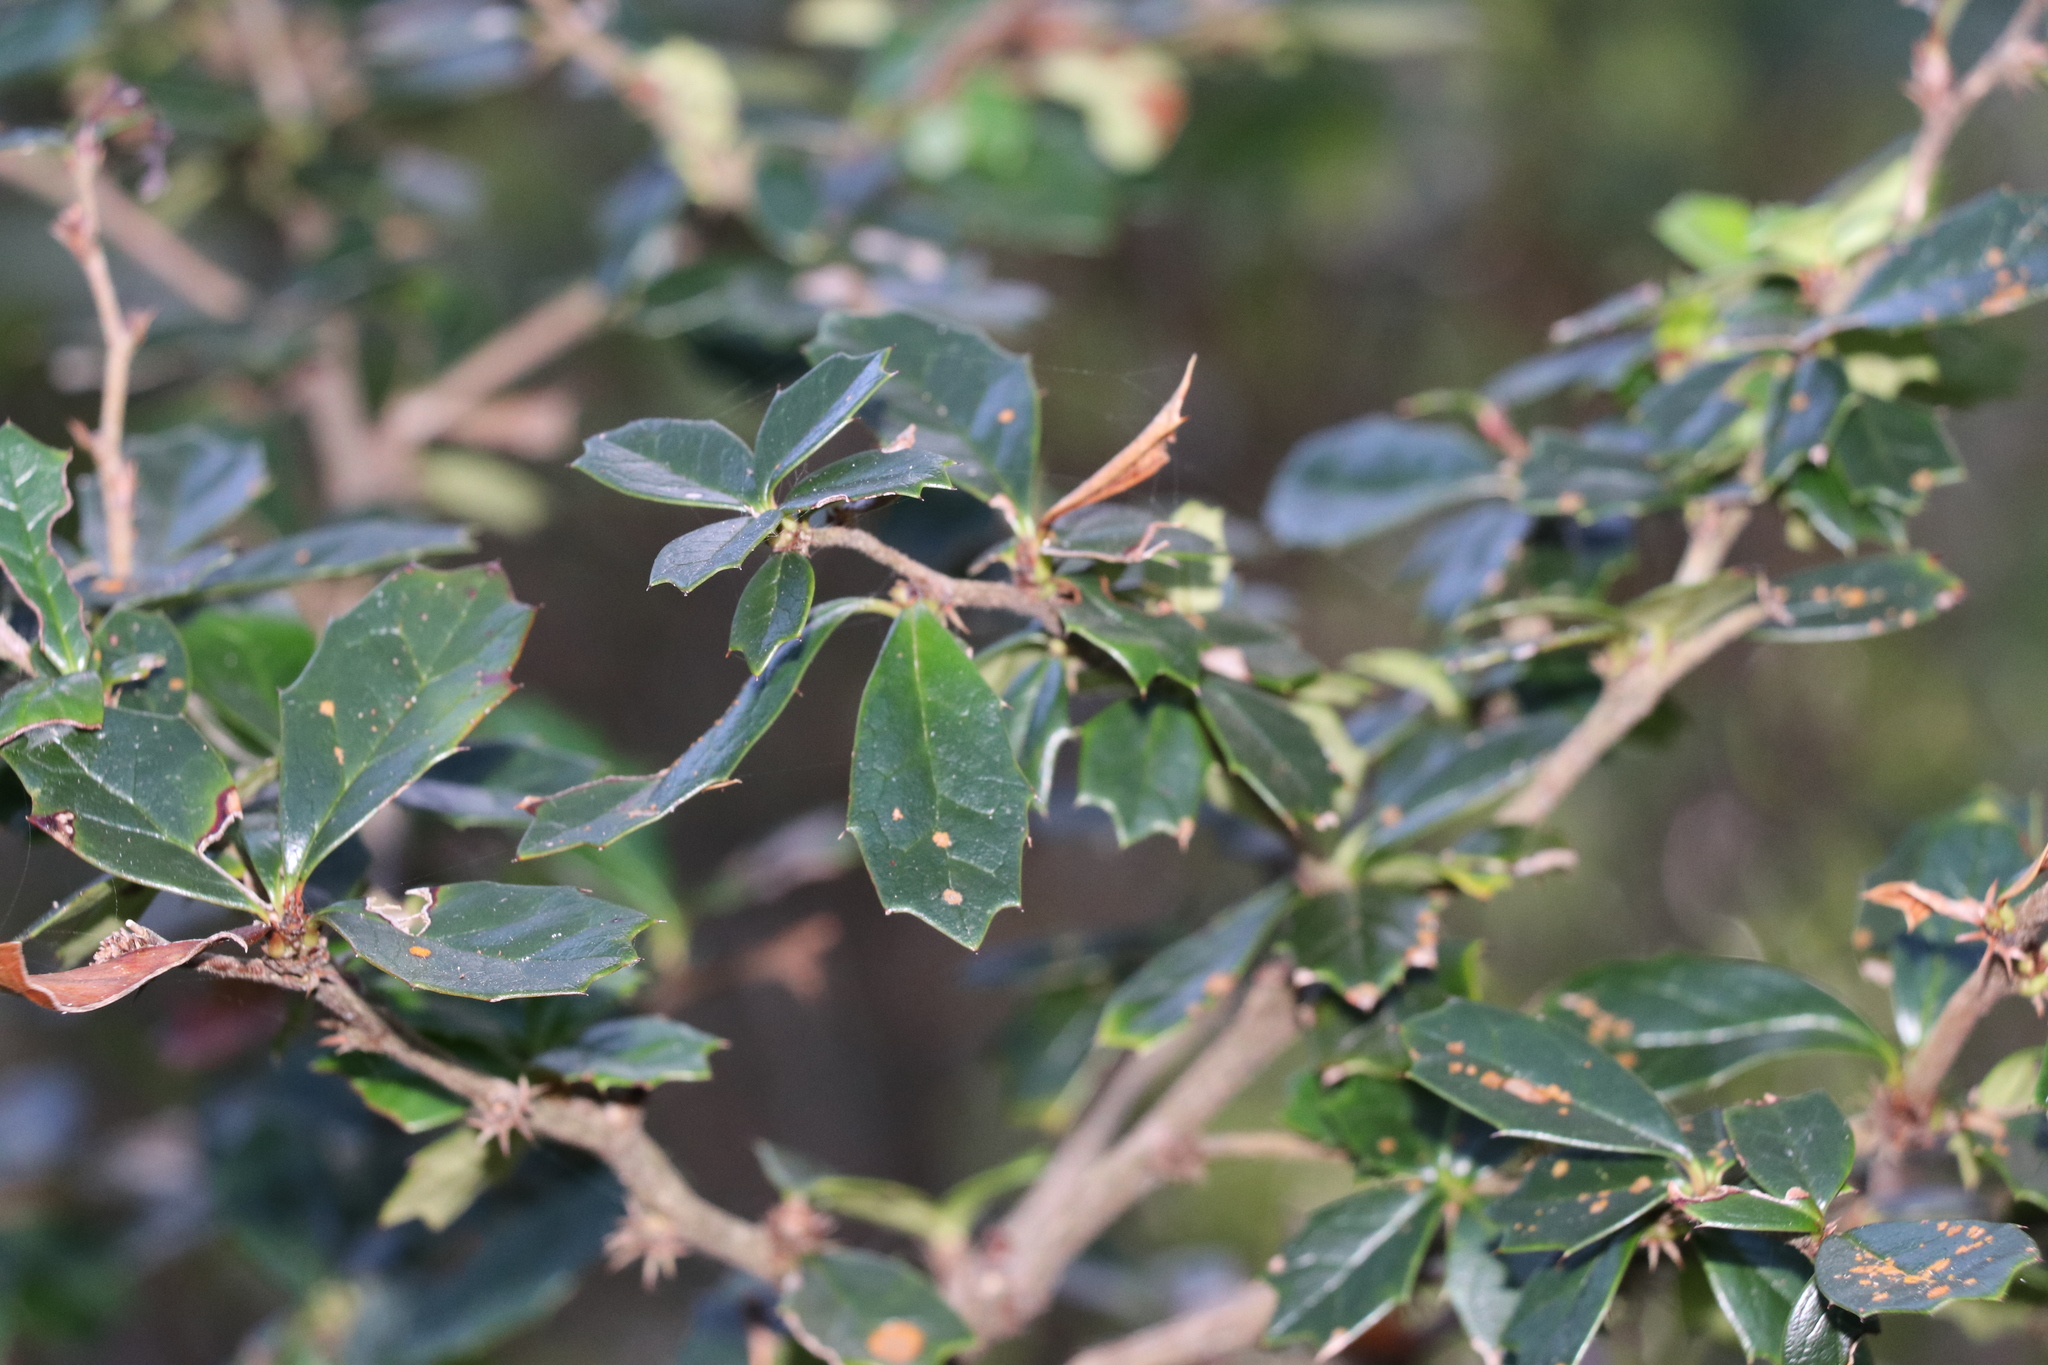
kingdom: Plantae
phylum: Tracheophyta
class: Magnoliopsida
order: Ranunculales
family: Berberidaceae
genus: Berberis
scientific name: Berberis darwinii
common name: Darwin's barberry
